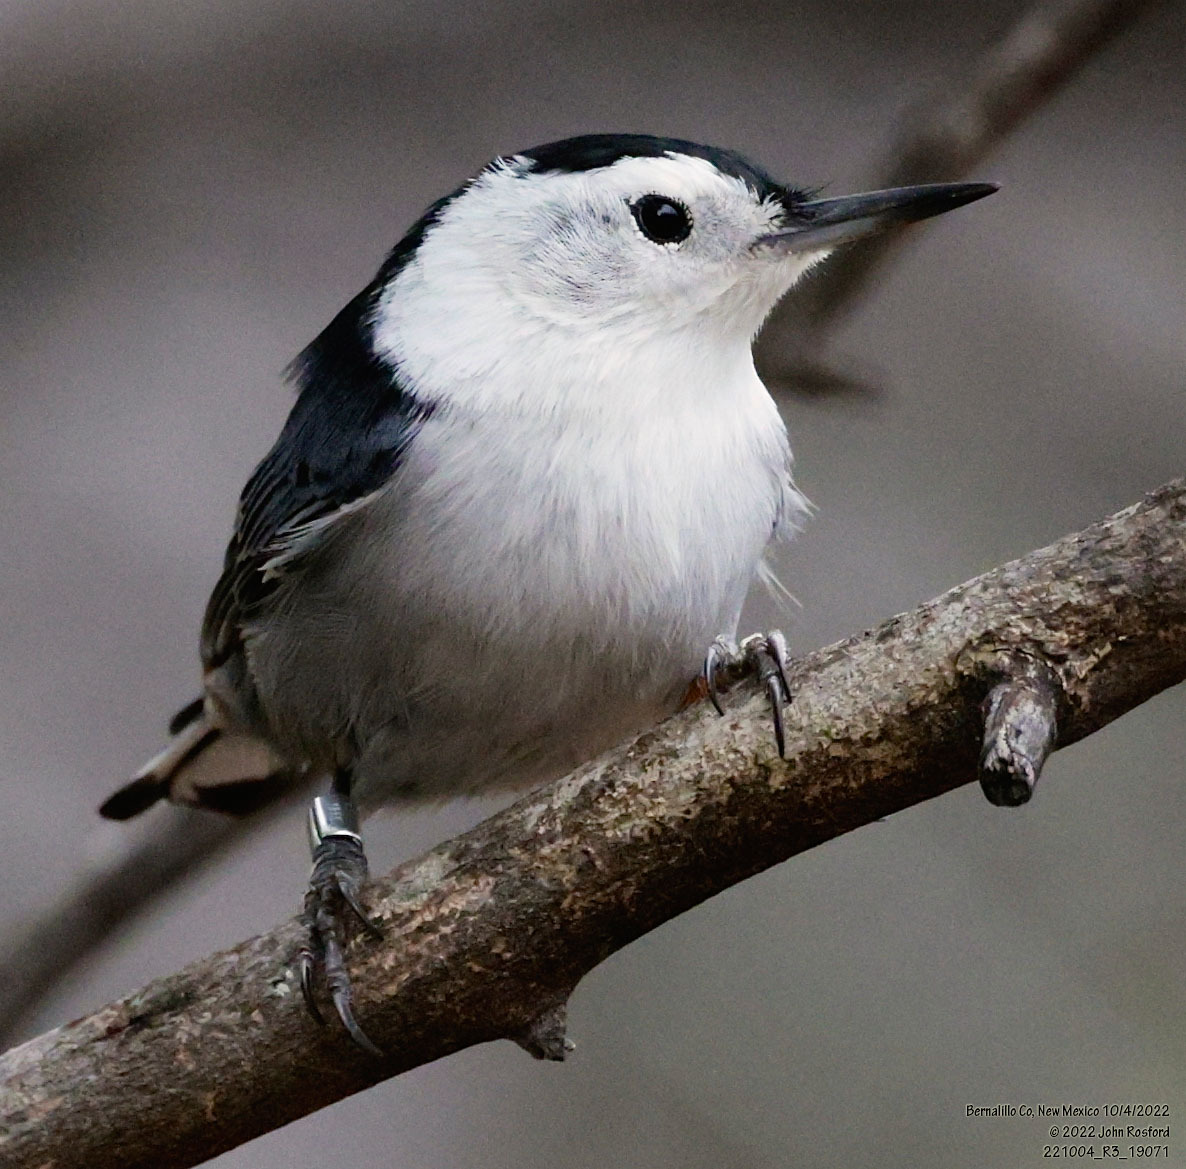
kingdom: Animalia
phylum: Chordata
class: Aves
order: Passeriformes
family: Sittidae
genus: Sitta
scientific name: Sitta carolinensis
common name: White-breasted nuthatch
